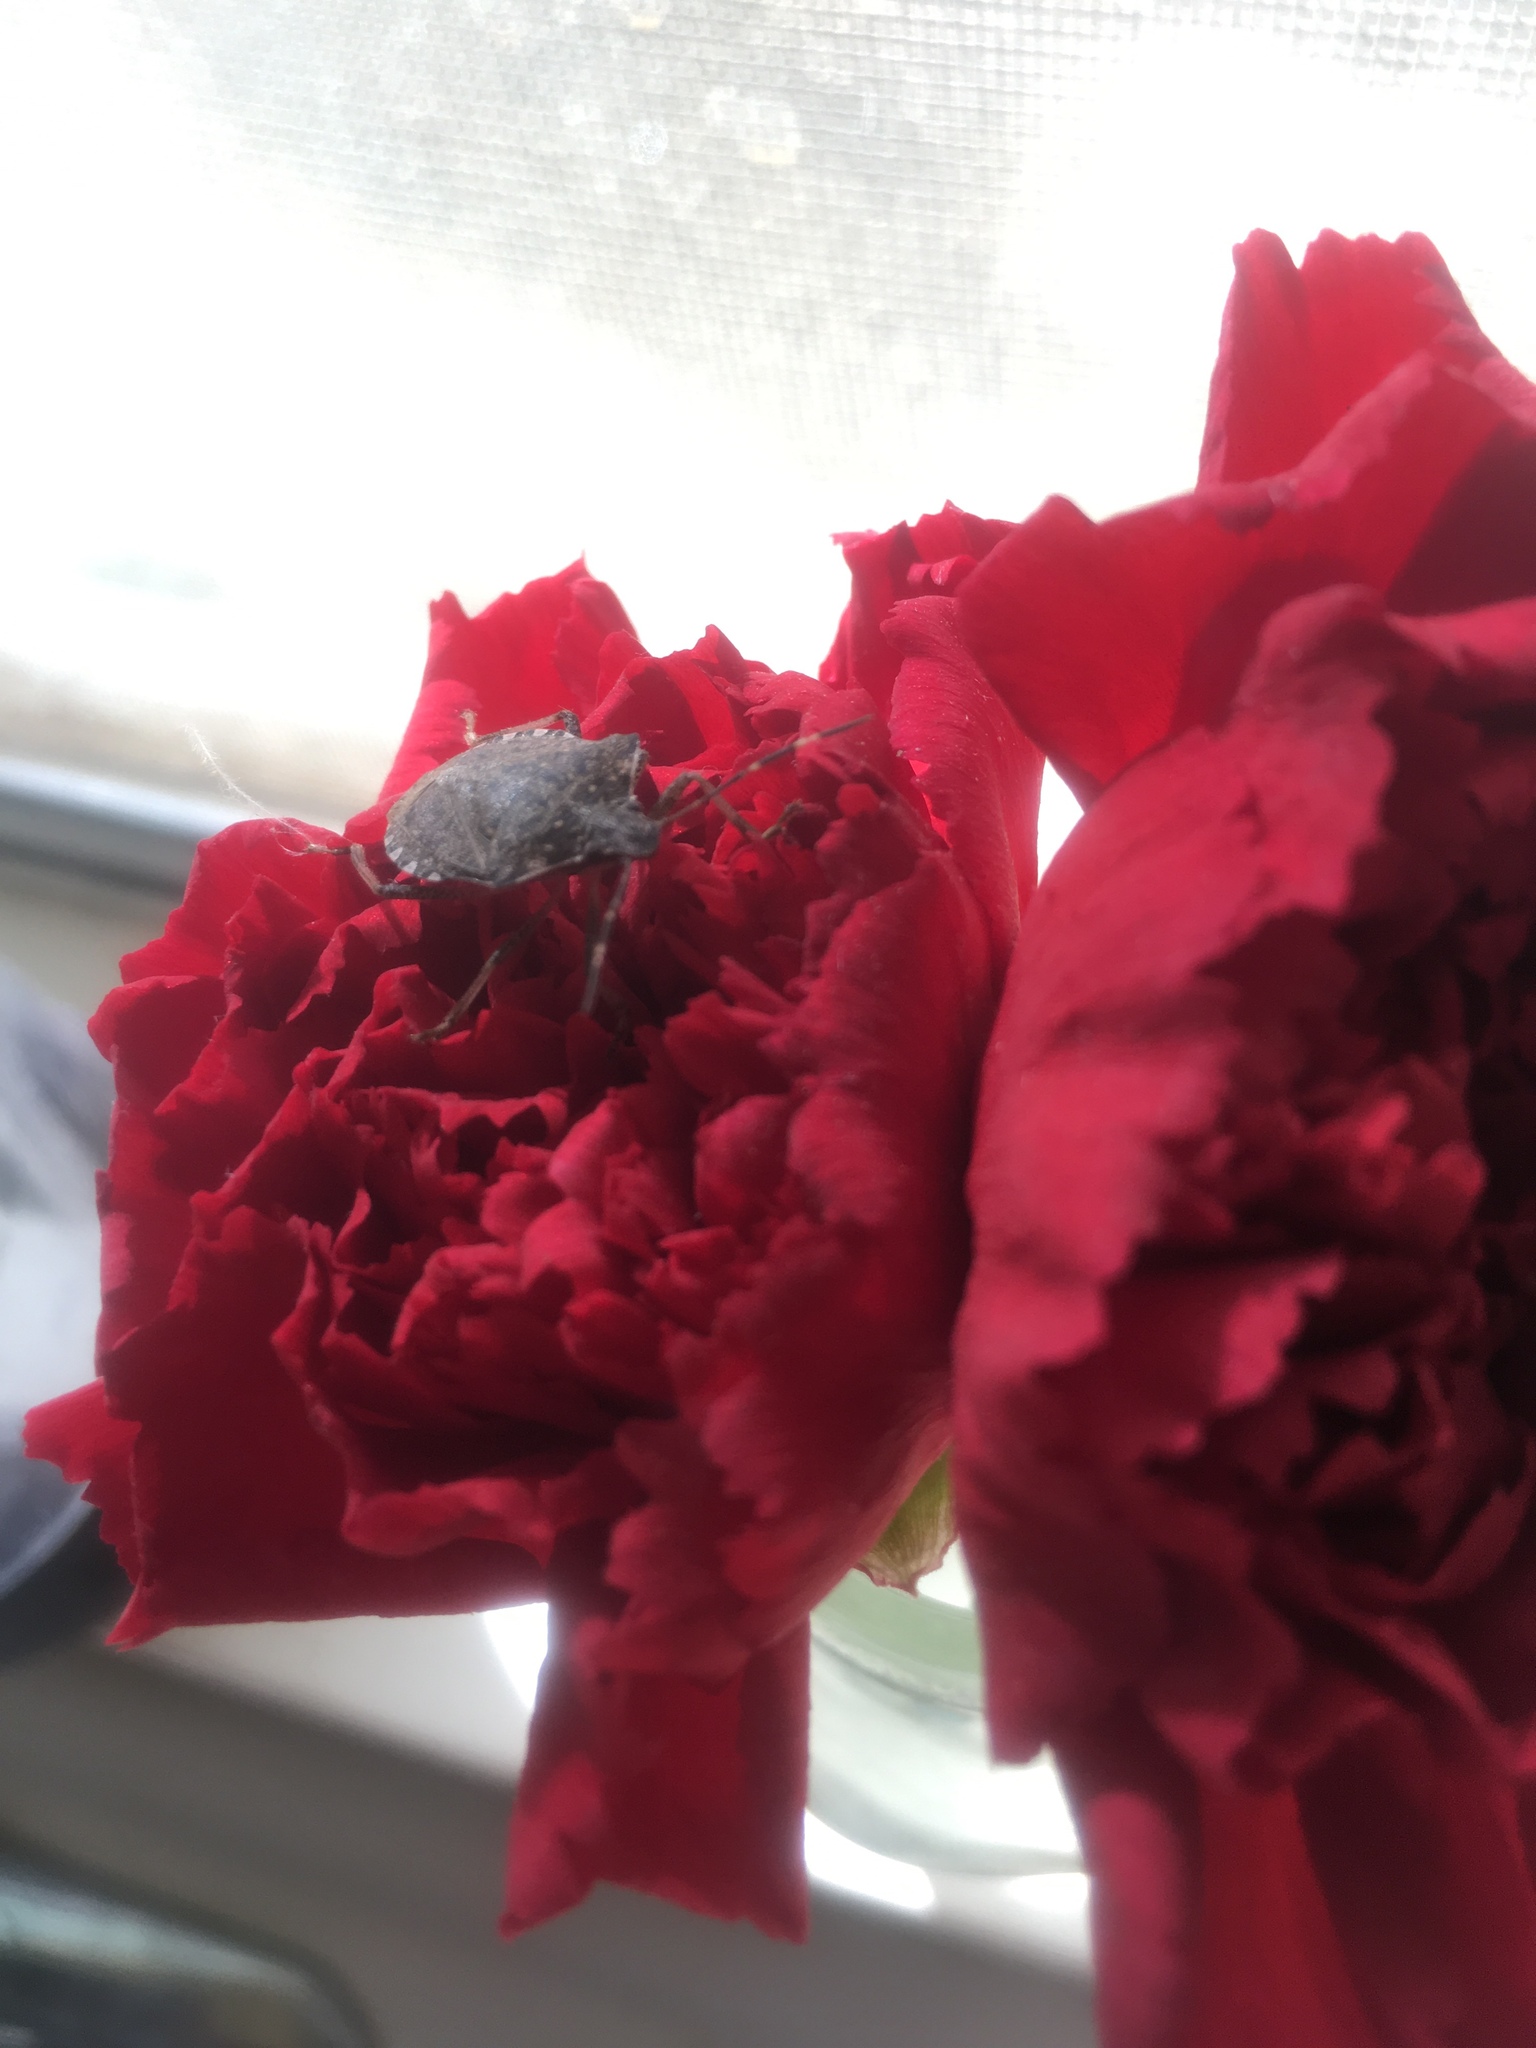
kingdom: Animalia
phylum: Arthropoda
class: Insecta
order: Hemiptera
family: Pentatomidae
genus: Halyomorpha
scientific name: Halyomorpha halys
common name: Brown marmorated stink bug
